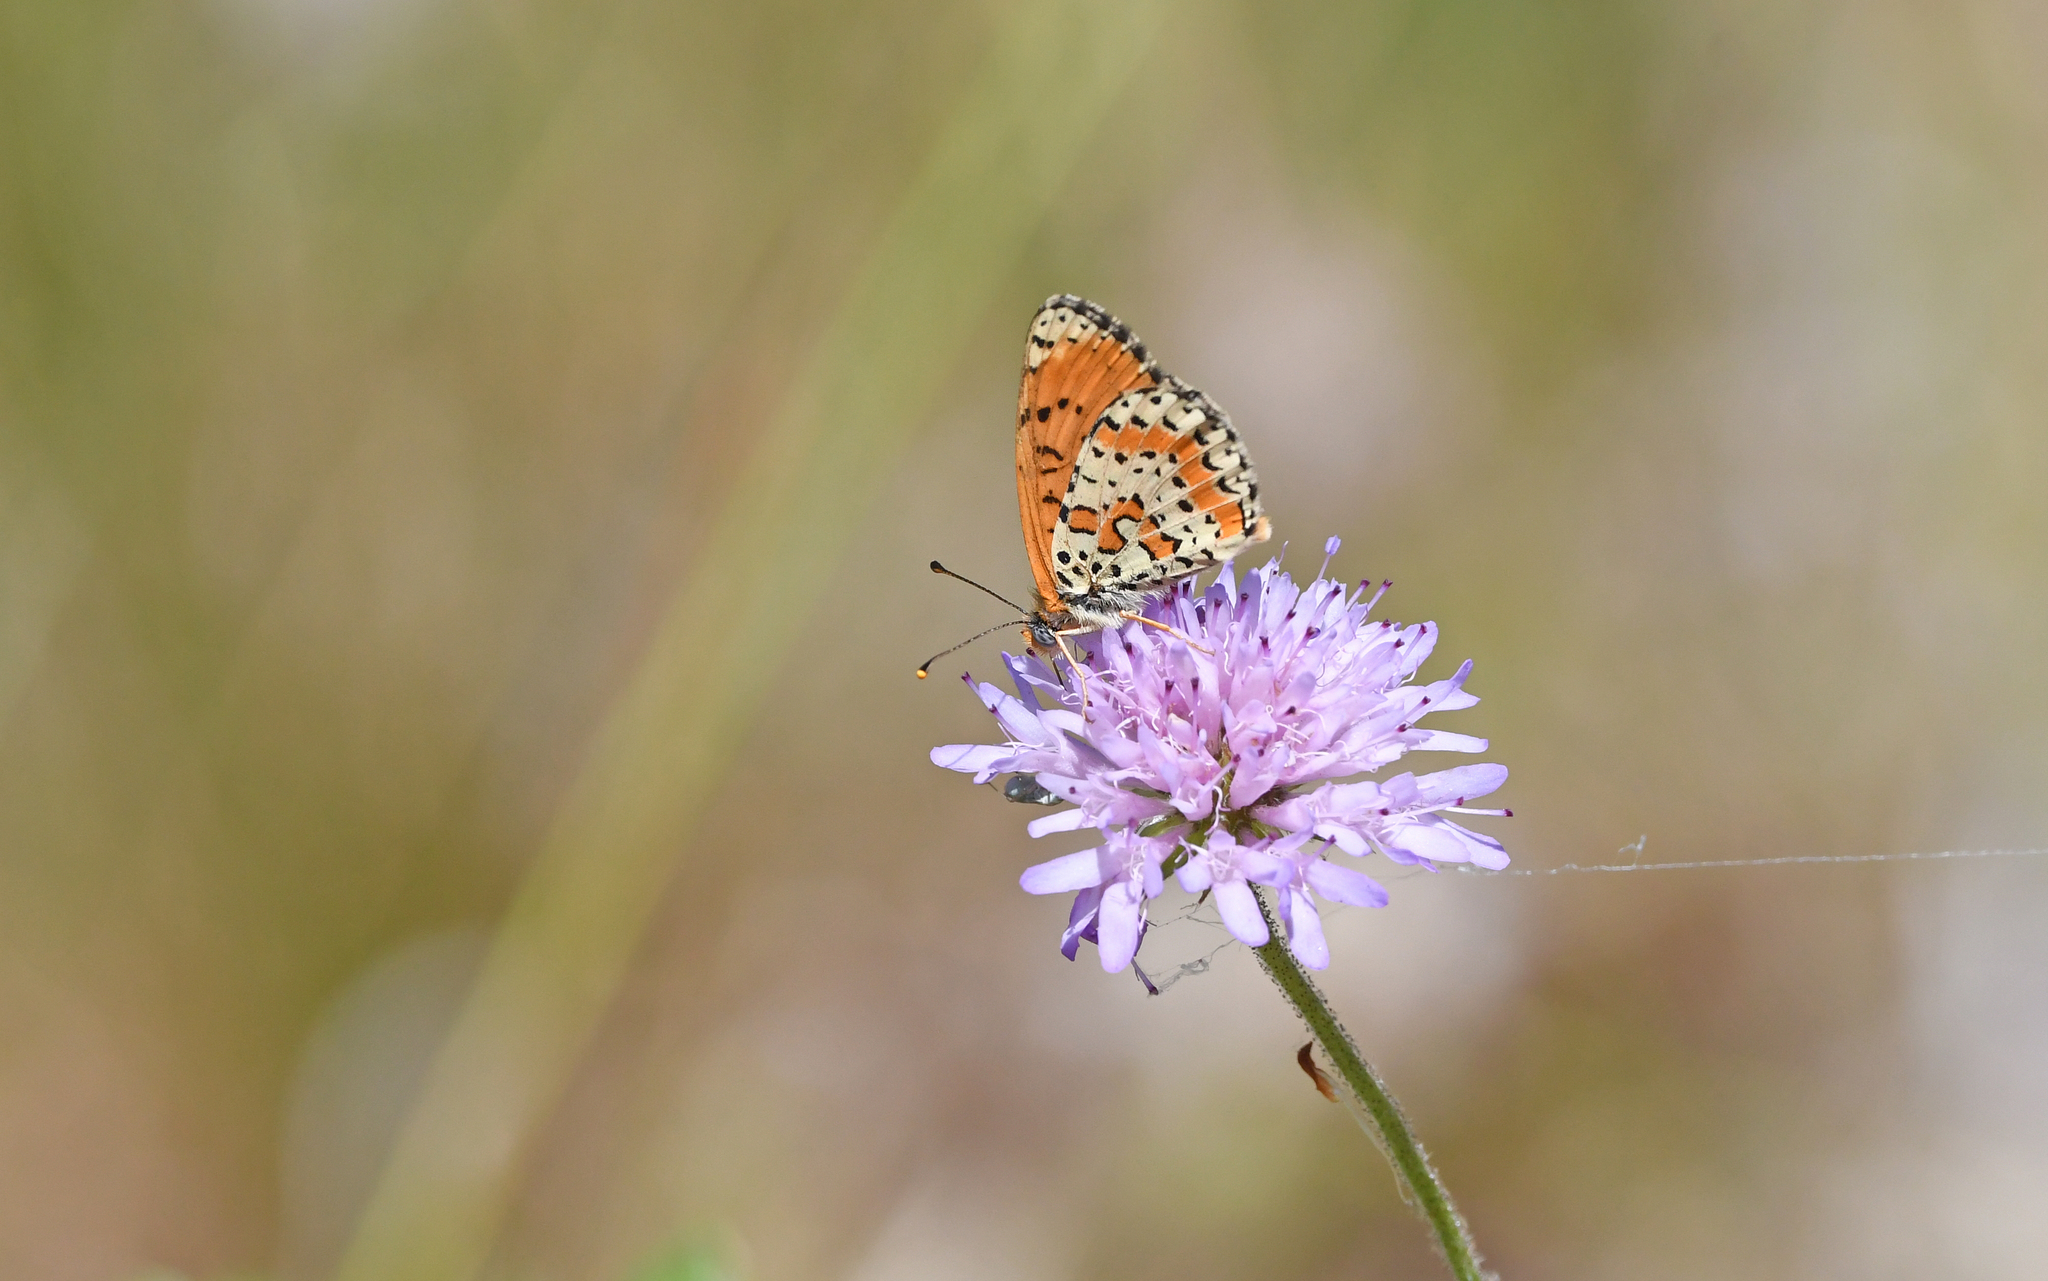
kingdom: Animalia
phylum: Arthropoda
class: Insecta
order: Lepidoptera
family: Nymphalidae
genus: Melitaea
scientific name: Melitaea didyma
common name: Spotted fritillary
